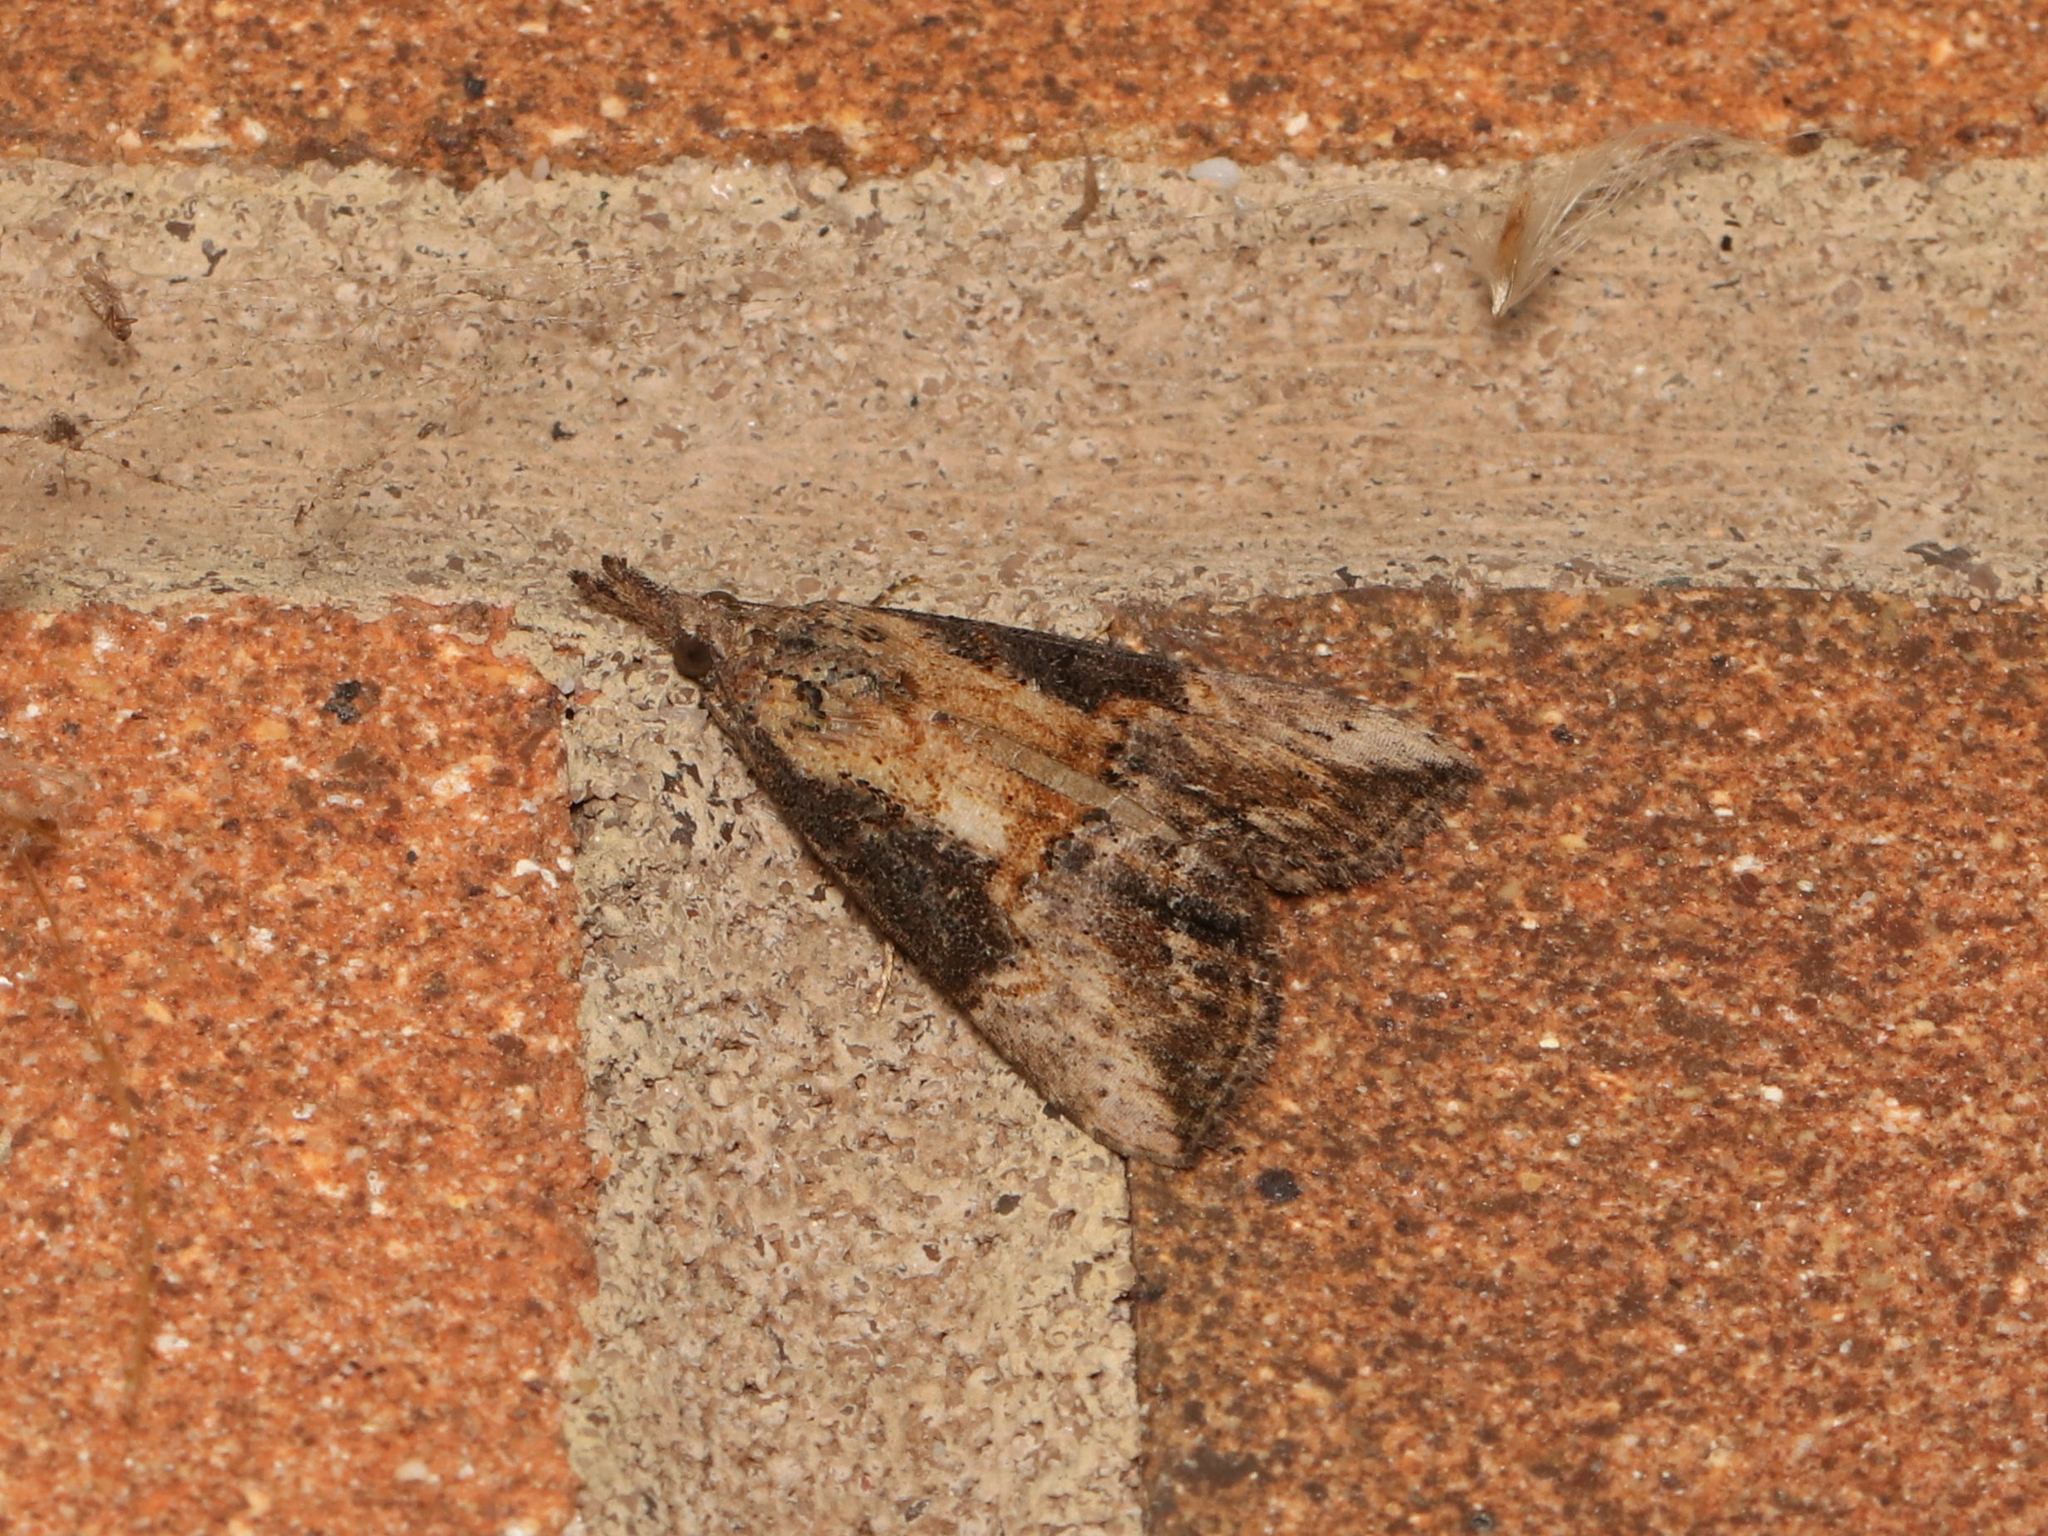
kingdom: Animalia
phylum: Arthropoda
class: Insecta
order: Lepidoptera
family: Erebidae
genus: Hypena
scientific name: Hypena scabra
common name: Green cloverworm
